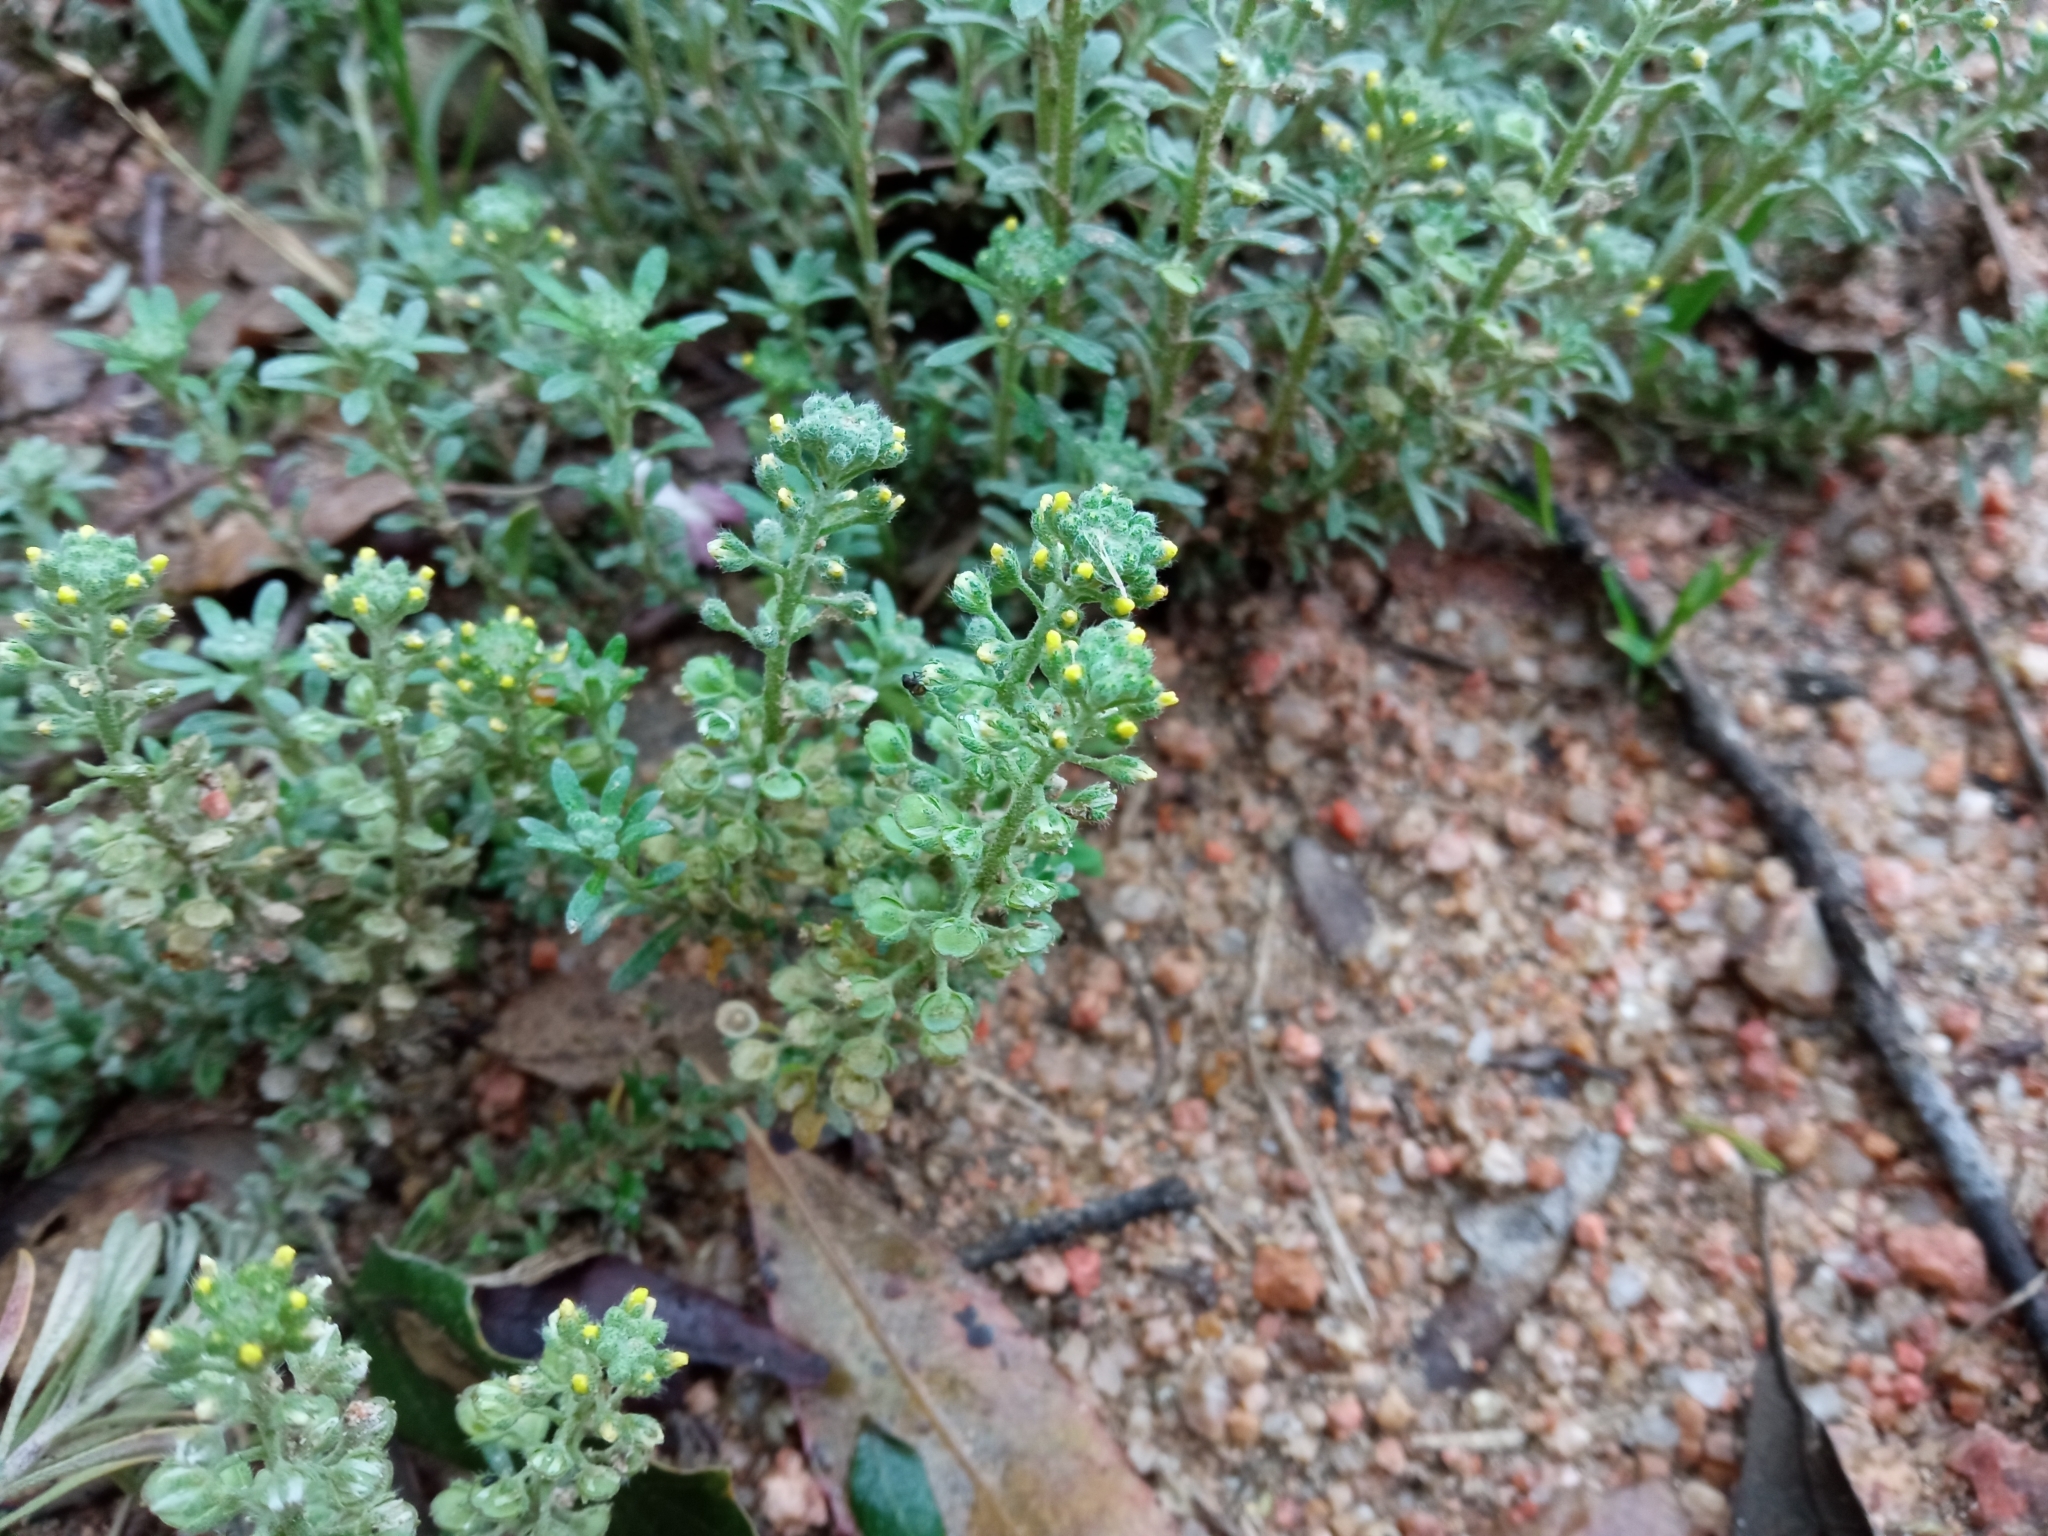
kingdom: Plantae
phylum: Tracheophyta
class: Magnoliopsida
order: Brassicales
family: Brassicaceae
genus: Alyssum
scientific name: Alyssum alyssoides
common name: Small alison
